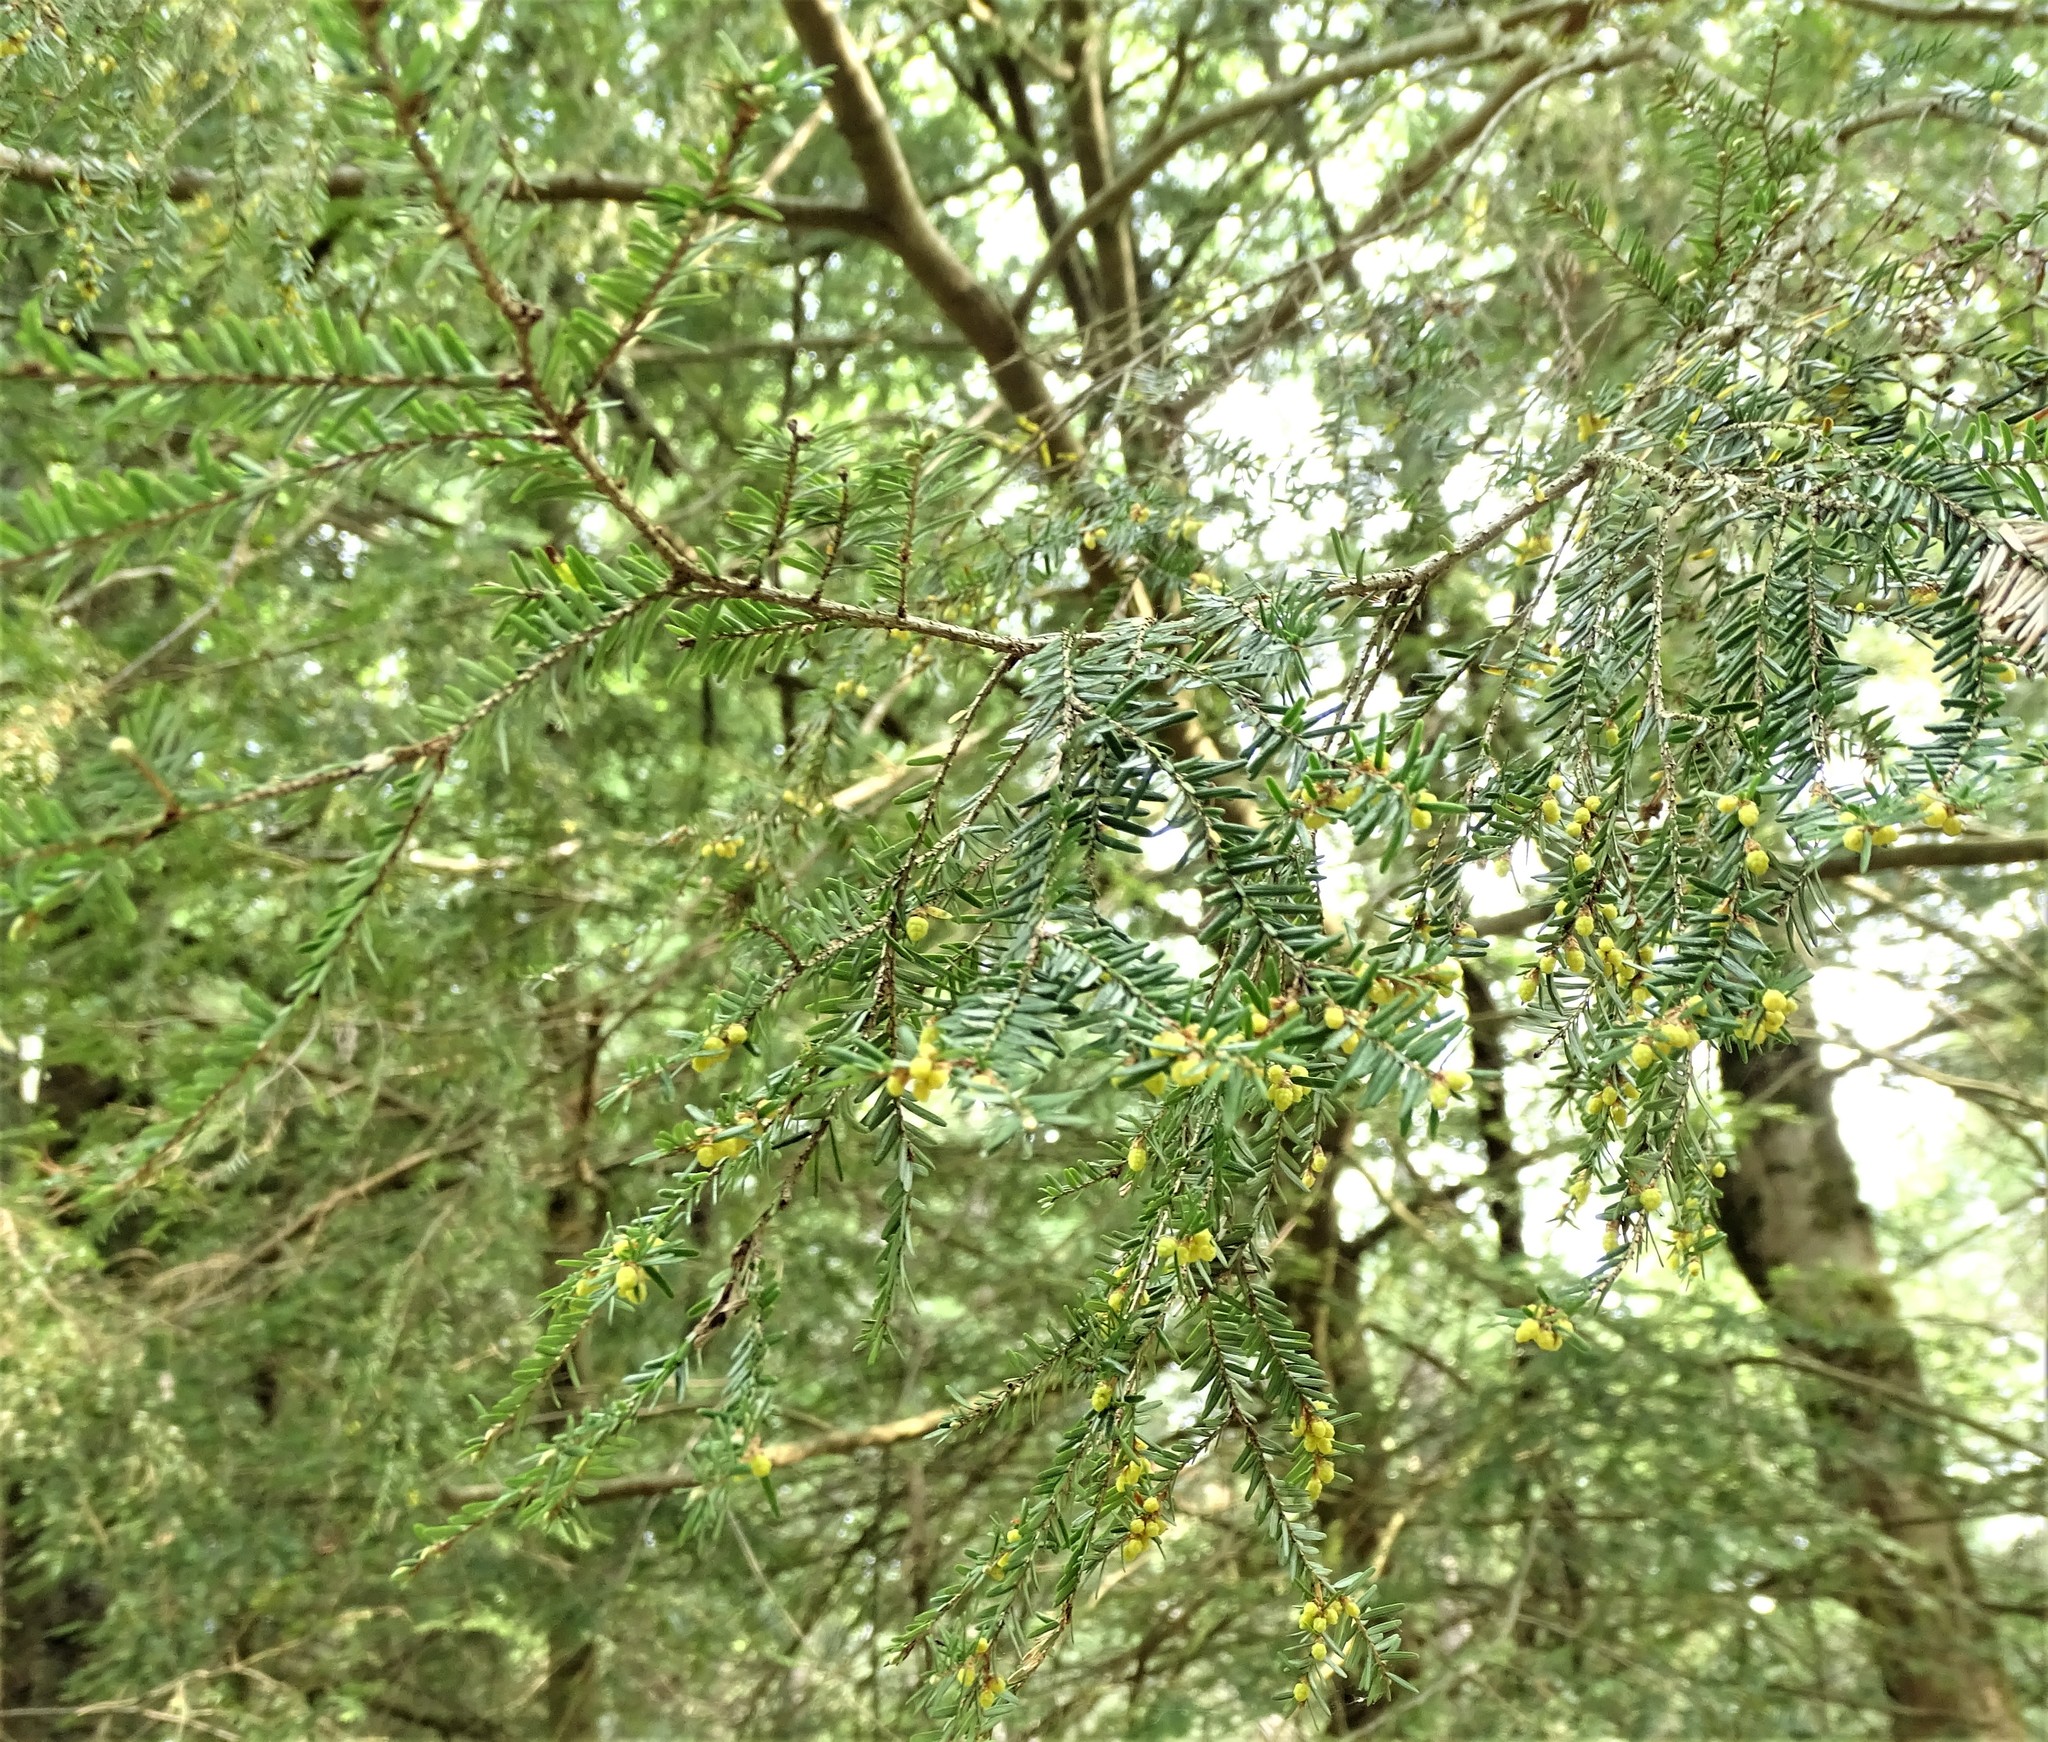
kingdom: Plantae
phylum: Tracheophyta
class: Pinopsida
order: Pinales
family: Pinaceae
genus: Tsuga
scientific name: Tsuga canadensis
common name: Eastern hemlock
